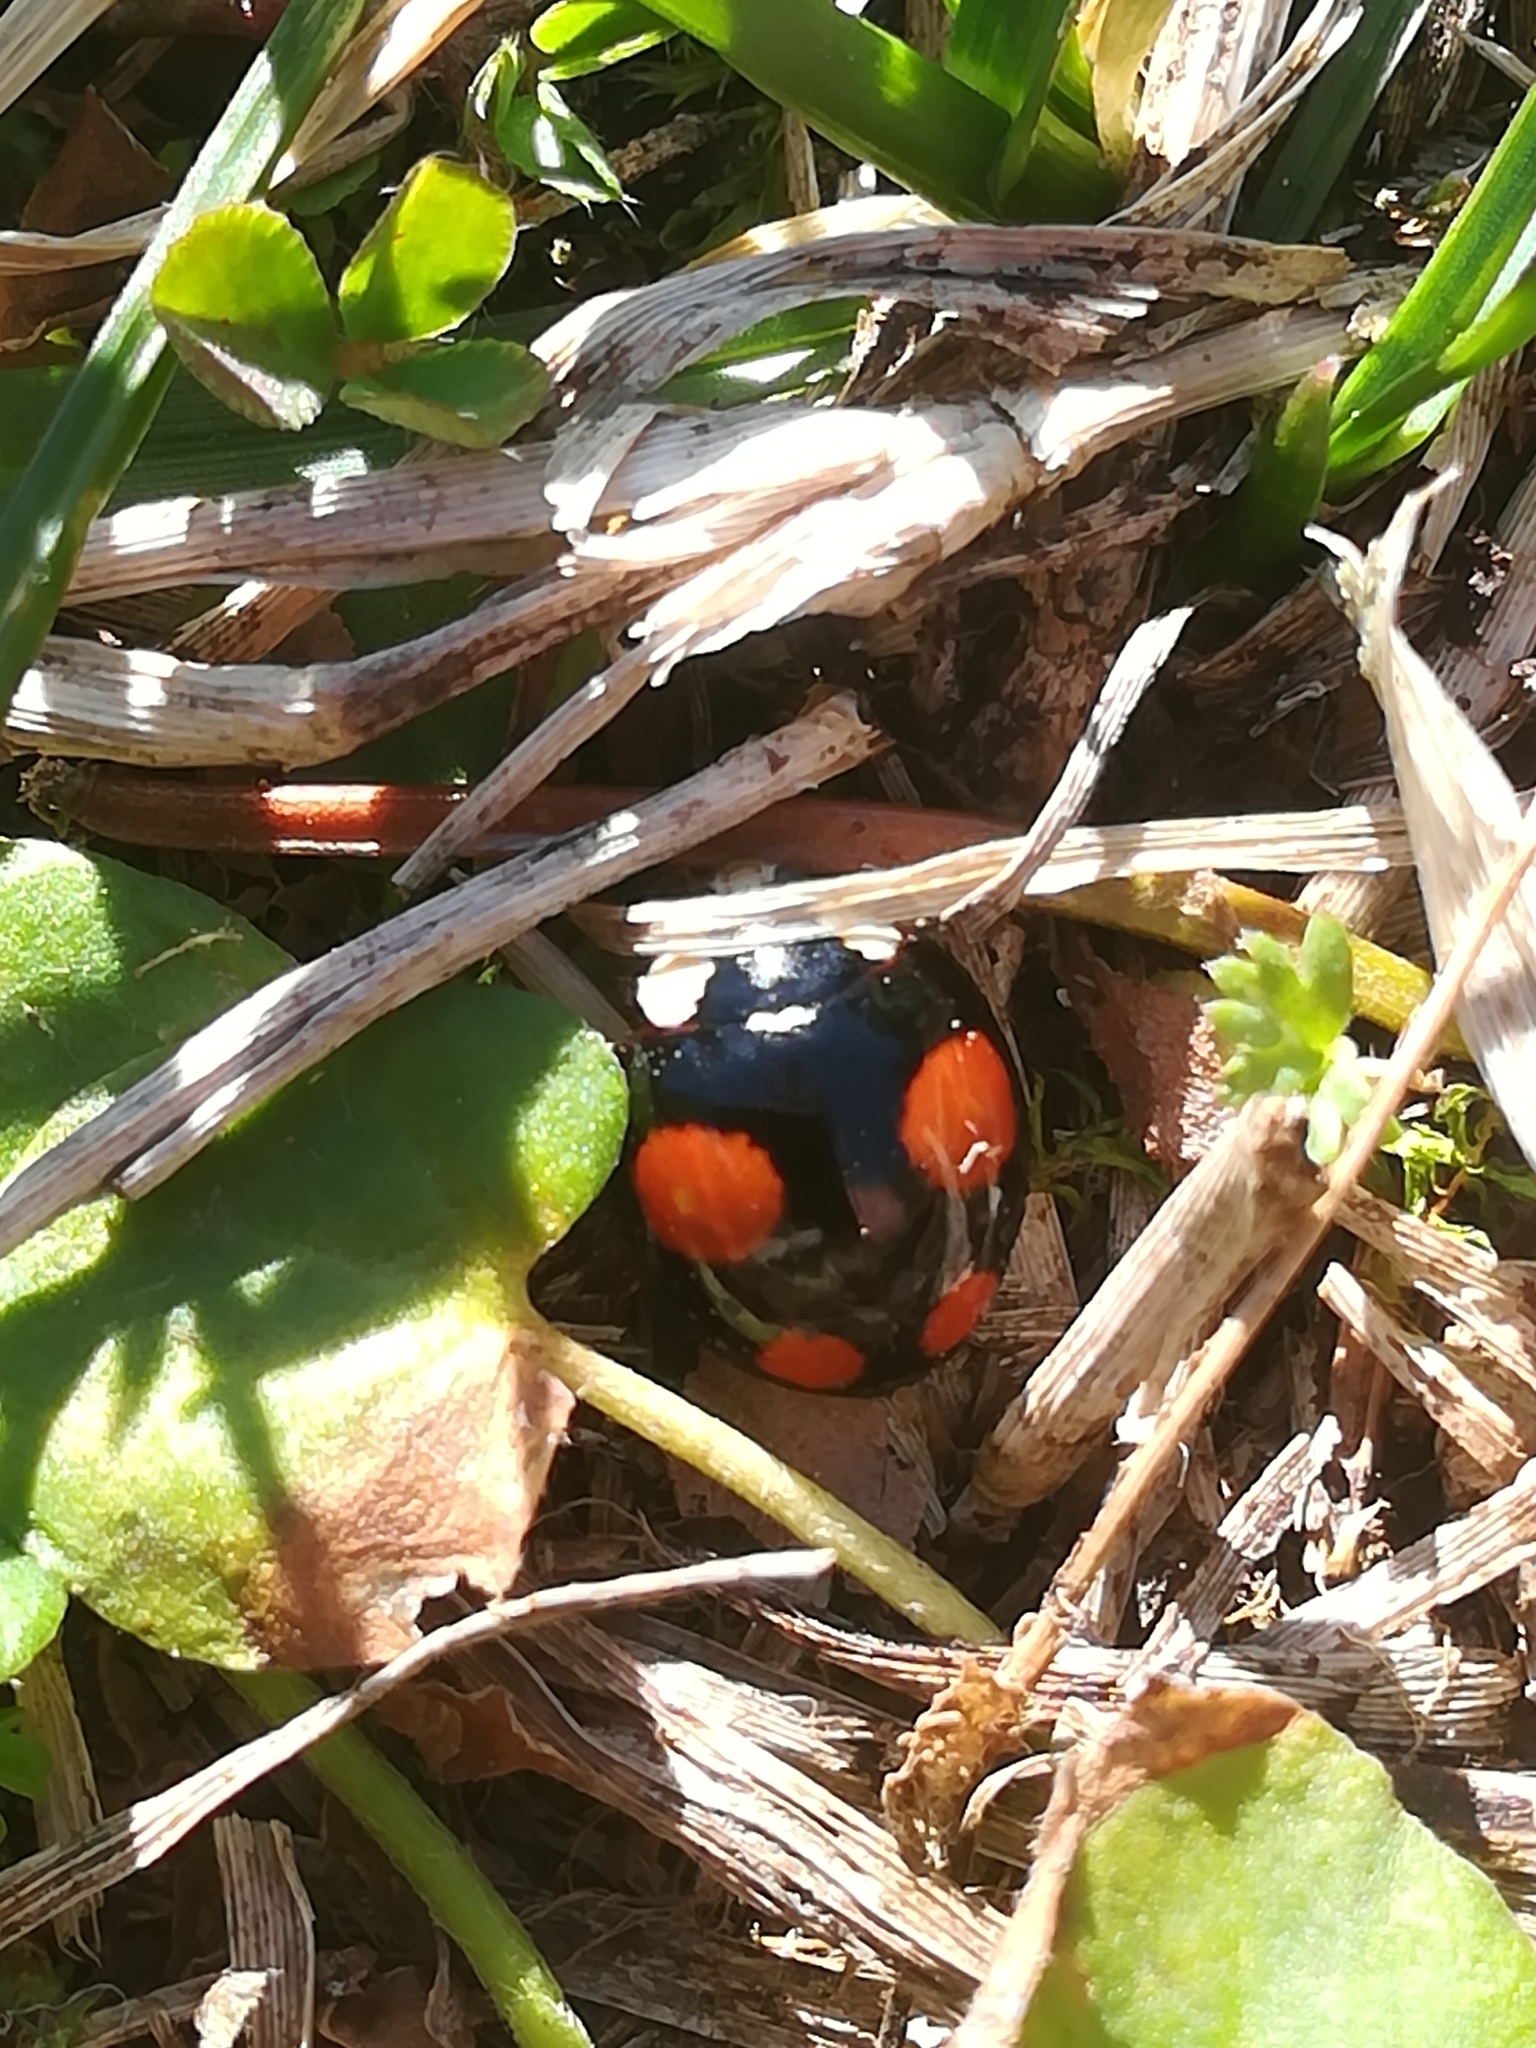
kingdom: Animalia
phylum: Arthropoda
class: Insecta
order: Coleoptera
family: Coccinellidae
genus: Harmonia
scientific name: Harmonia axyridis
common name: Harlequin ladybird
